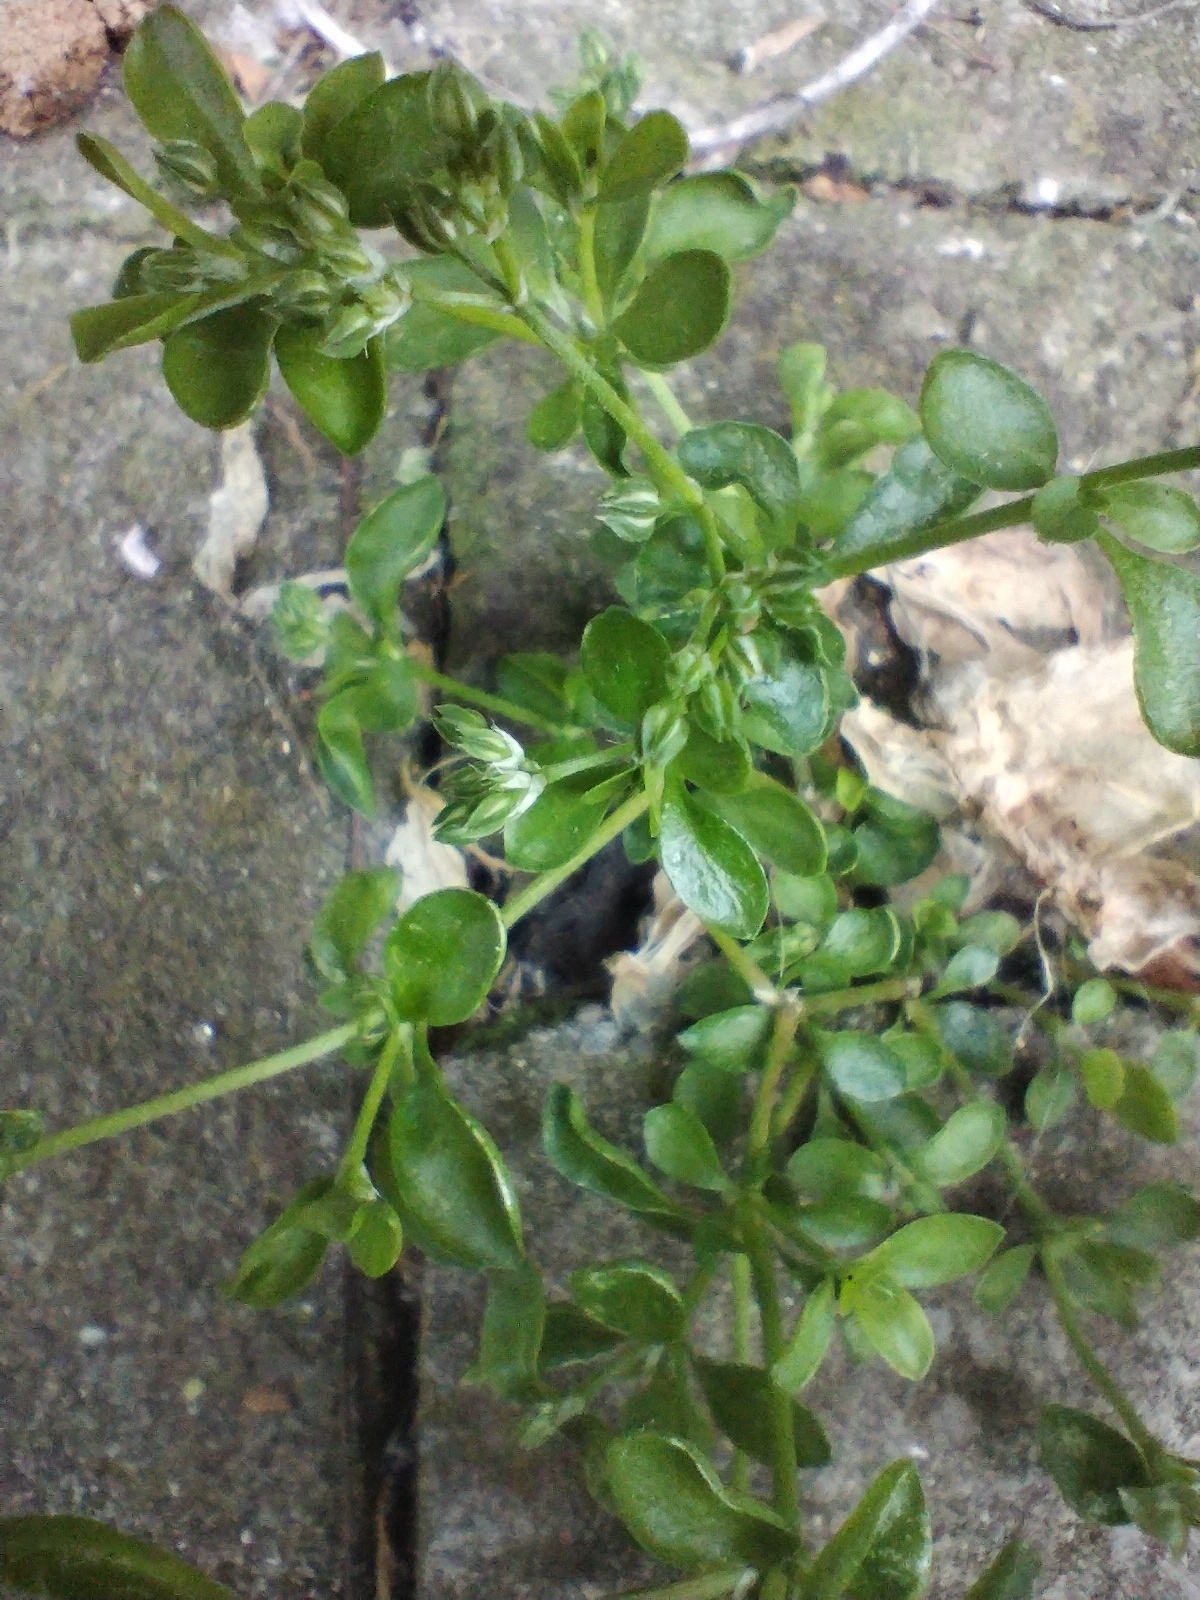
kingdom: Plantae
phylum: Tracheophyta
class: Magnoliopsida
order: Caryophyllales
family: Caryophyllaceae
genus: Polycarpon
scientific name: Polycarpon tetraphyllum
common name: Four-leaved all-seed
